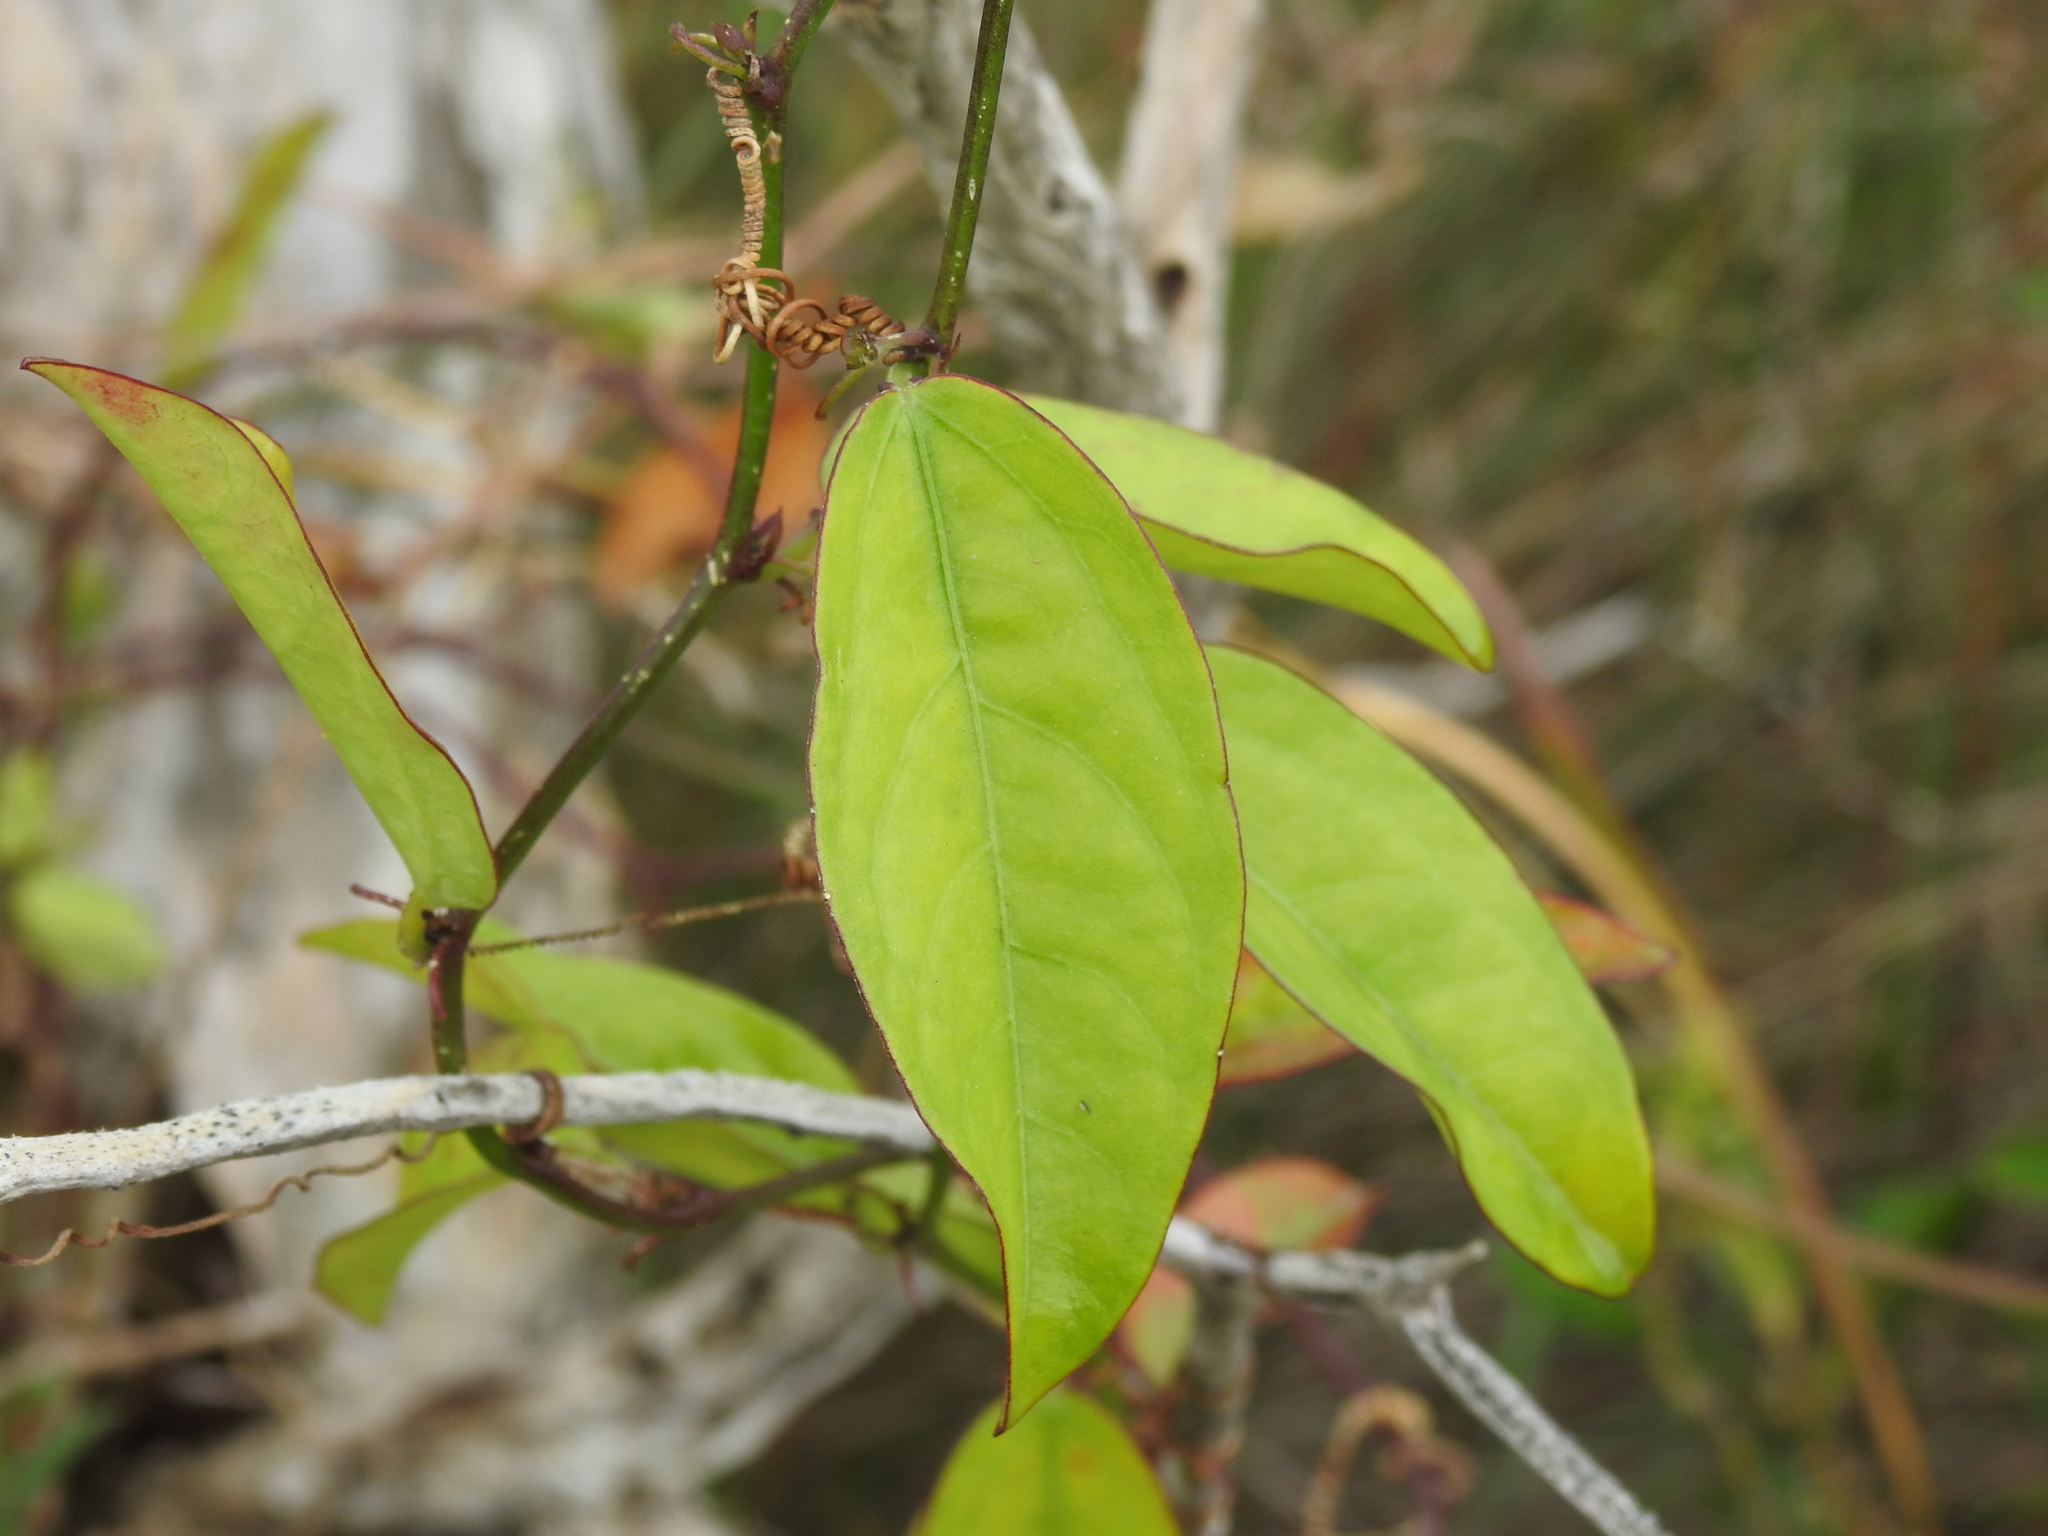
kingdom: Plantae
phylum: Tracheophyta
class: Magnoliopsida
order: Malpighiales
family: Passifloraceae
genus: Passiflora
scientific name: Passiflora pallida
